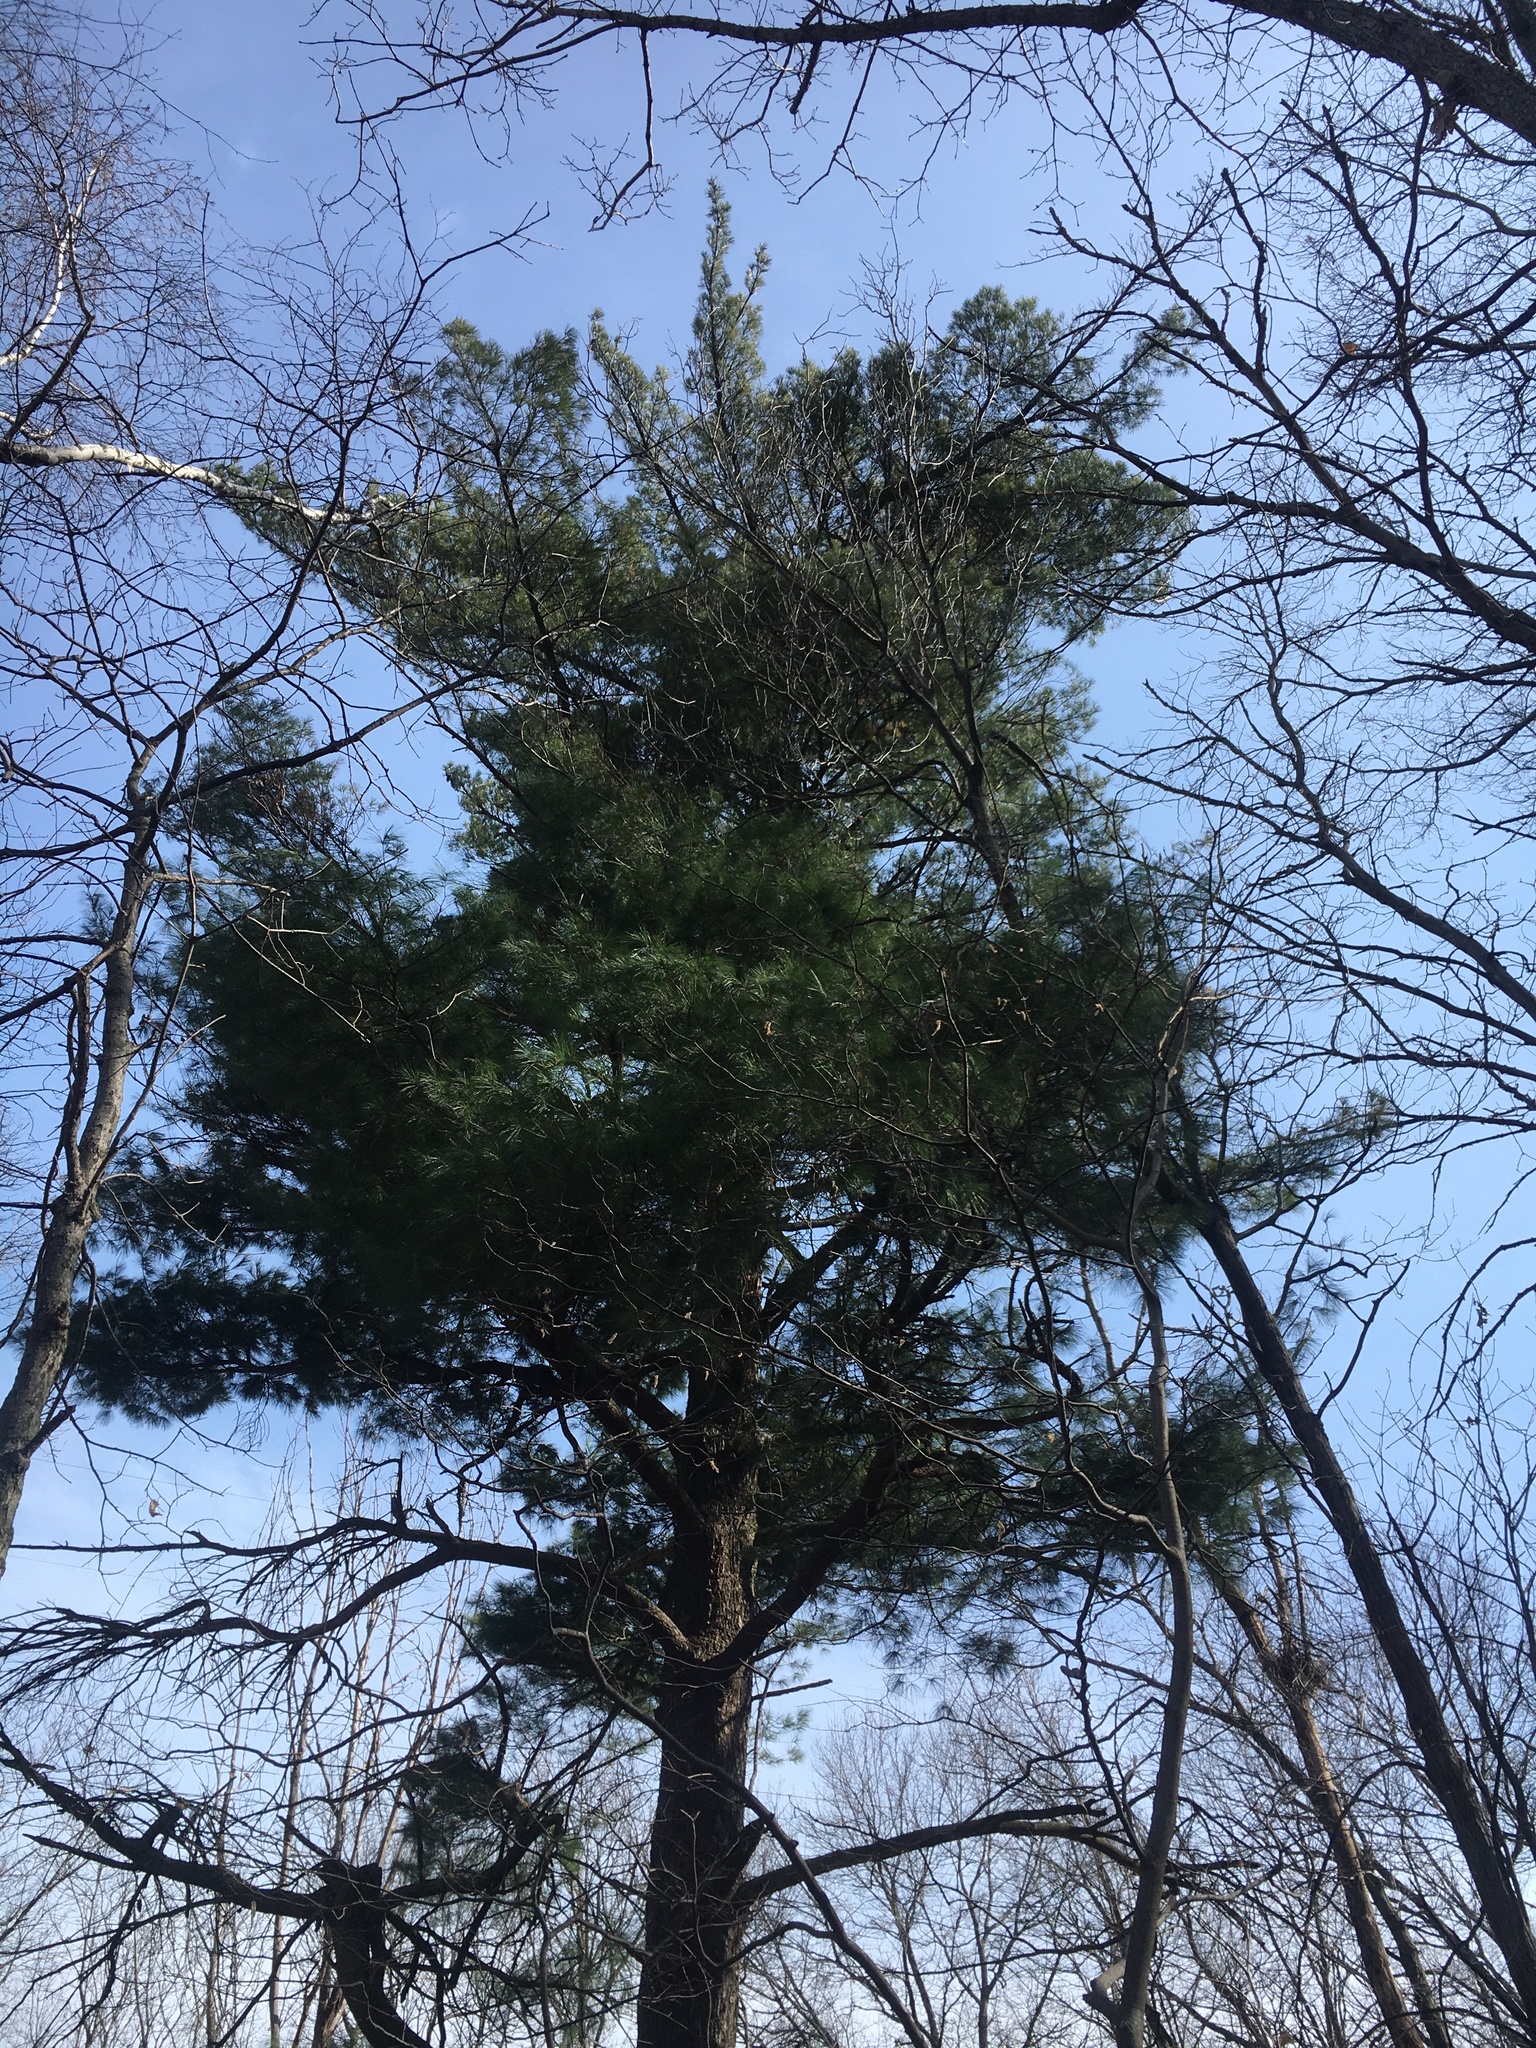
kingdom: Plantae
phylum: Tracheophyta
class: Pinopsida
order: Pinales
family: Pinaceae
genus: Pinus
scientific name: Pinus strobus
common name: Weymouth pine
